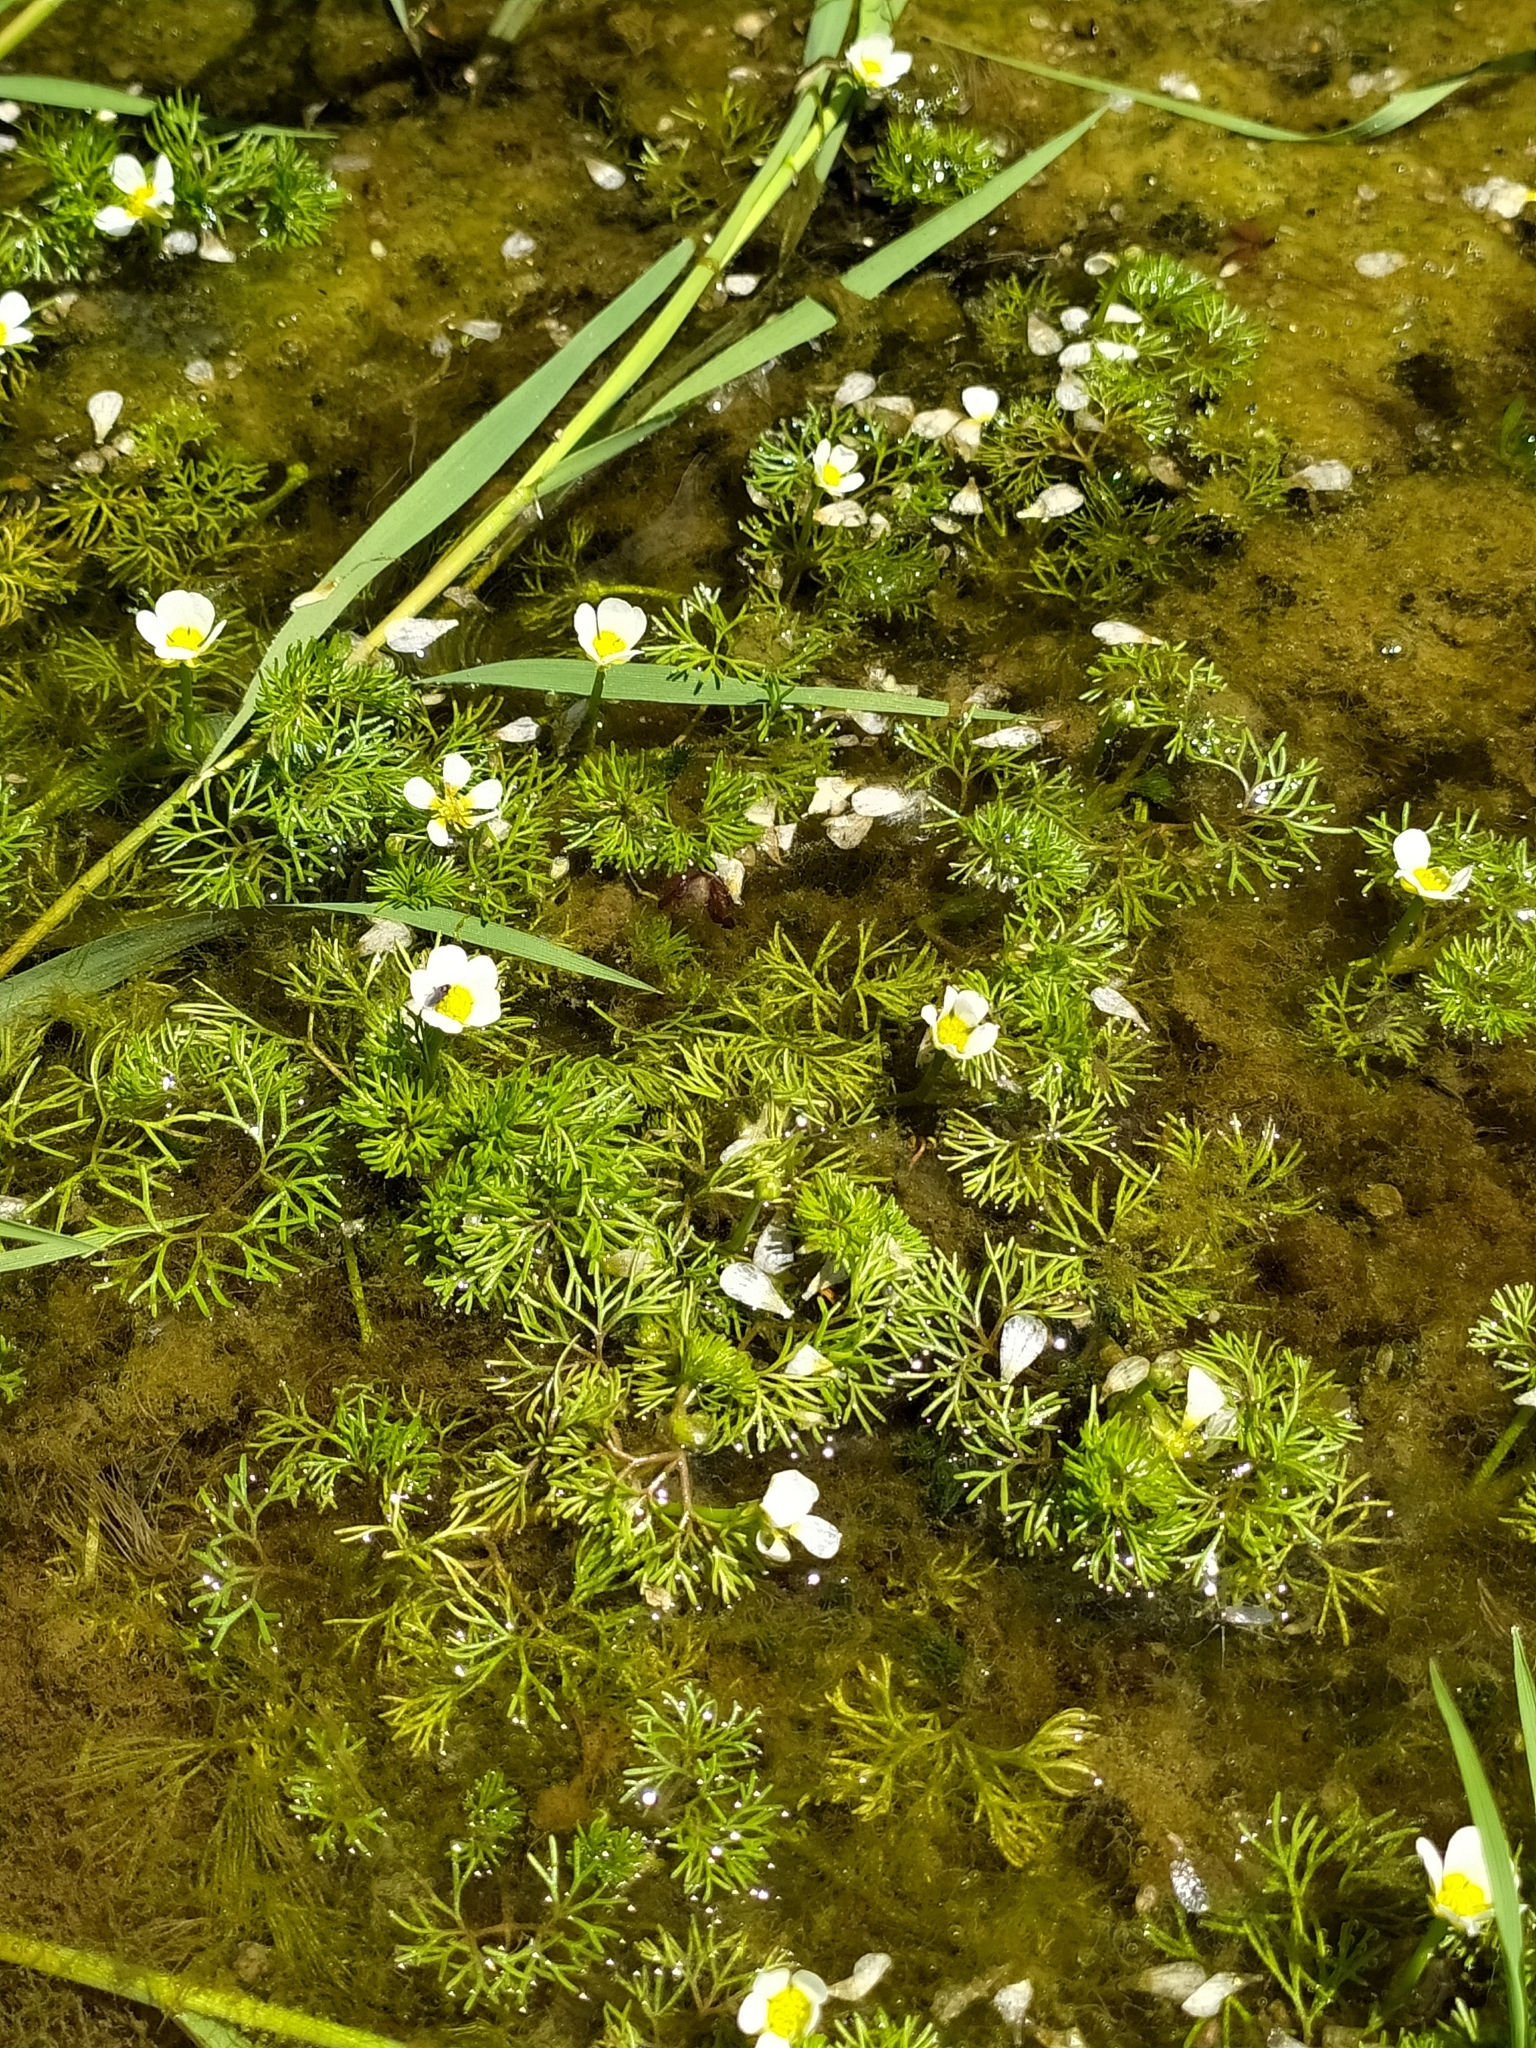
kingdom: Plantae
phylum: Tracheophyta
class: Magnoliopsida
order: Ranunculales
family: Ranunculaceae
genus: Ranunculus
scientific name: Ranunculus trichophyllus
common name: Thread-leaved water-crowfoot
